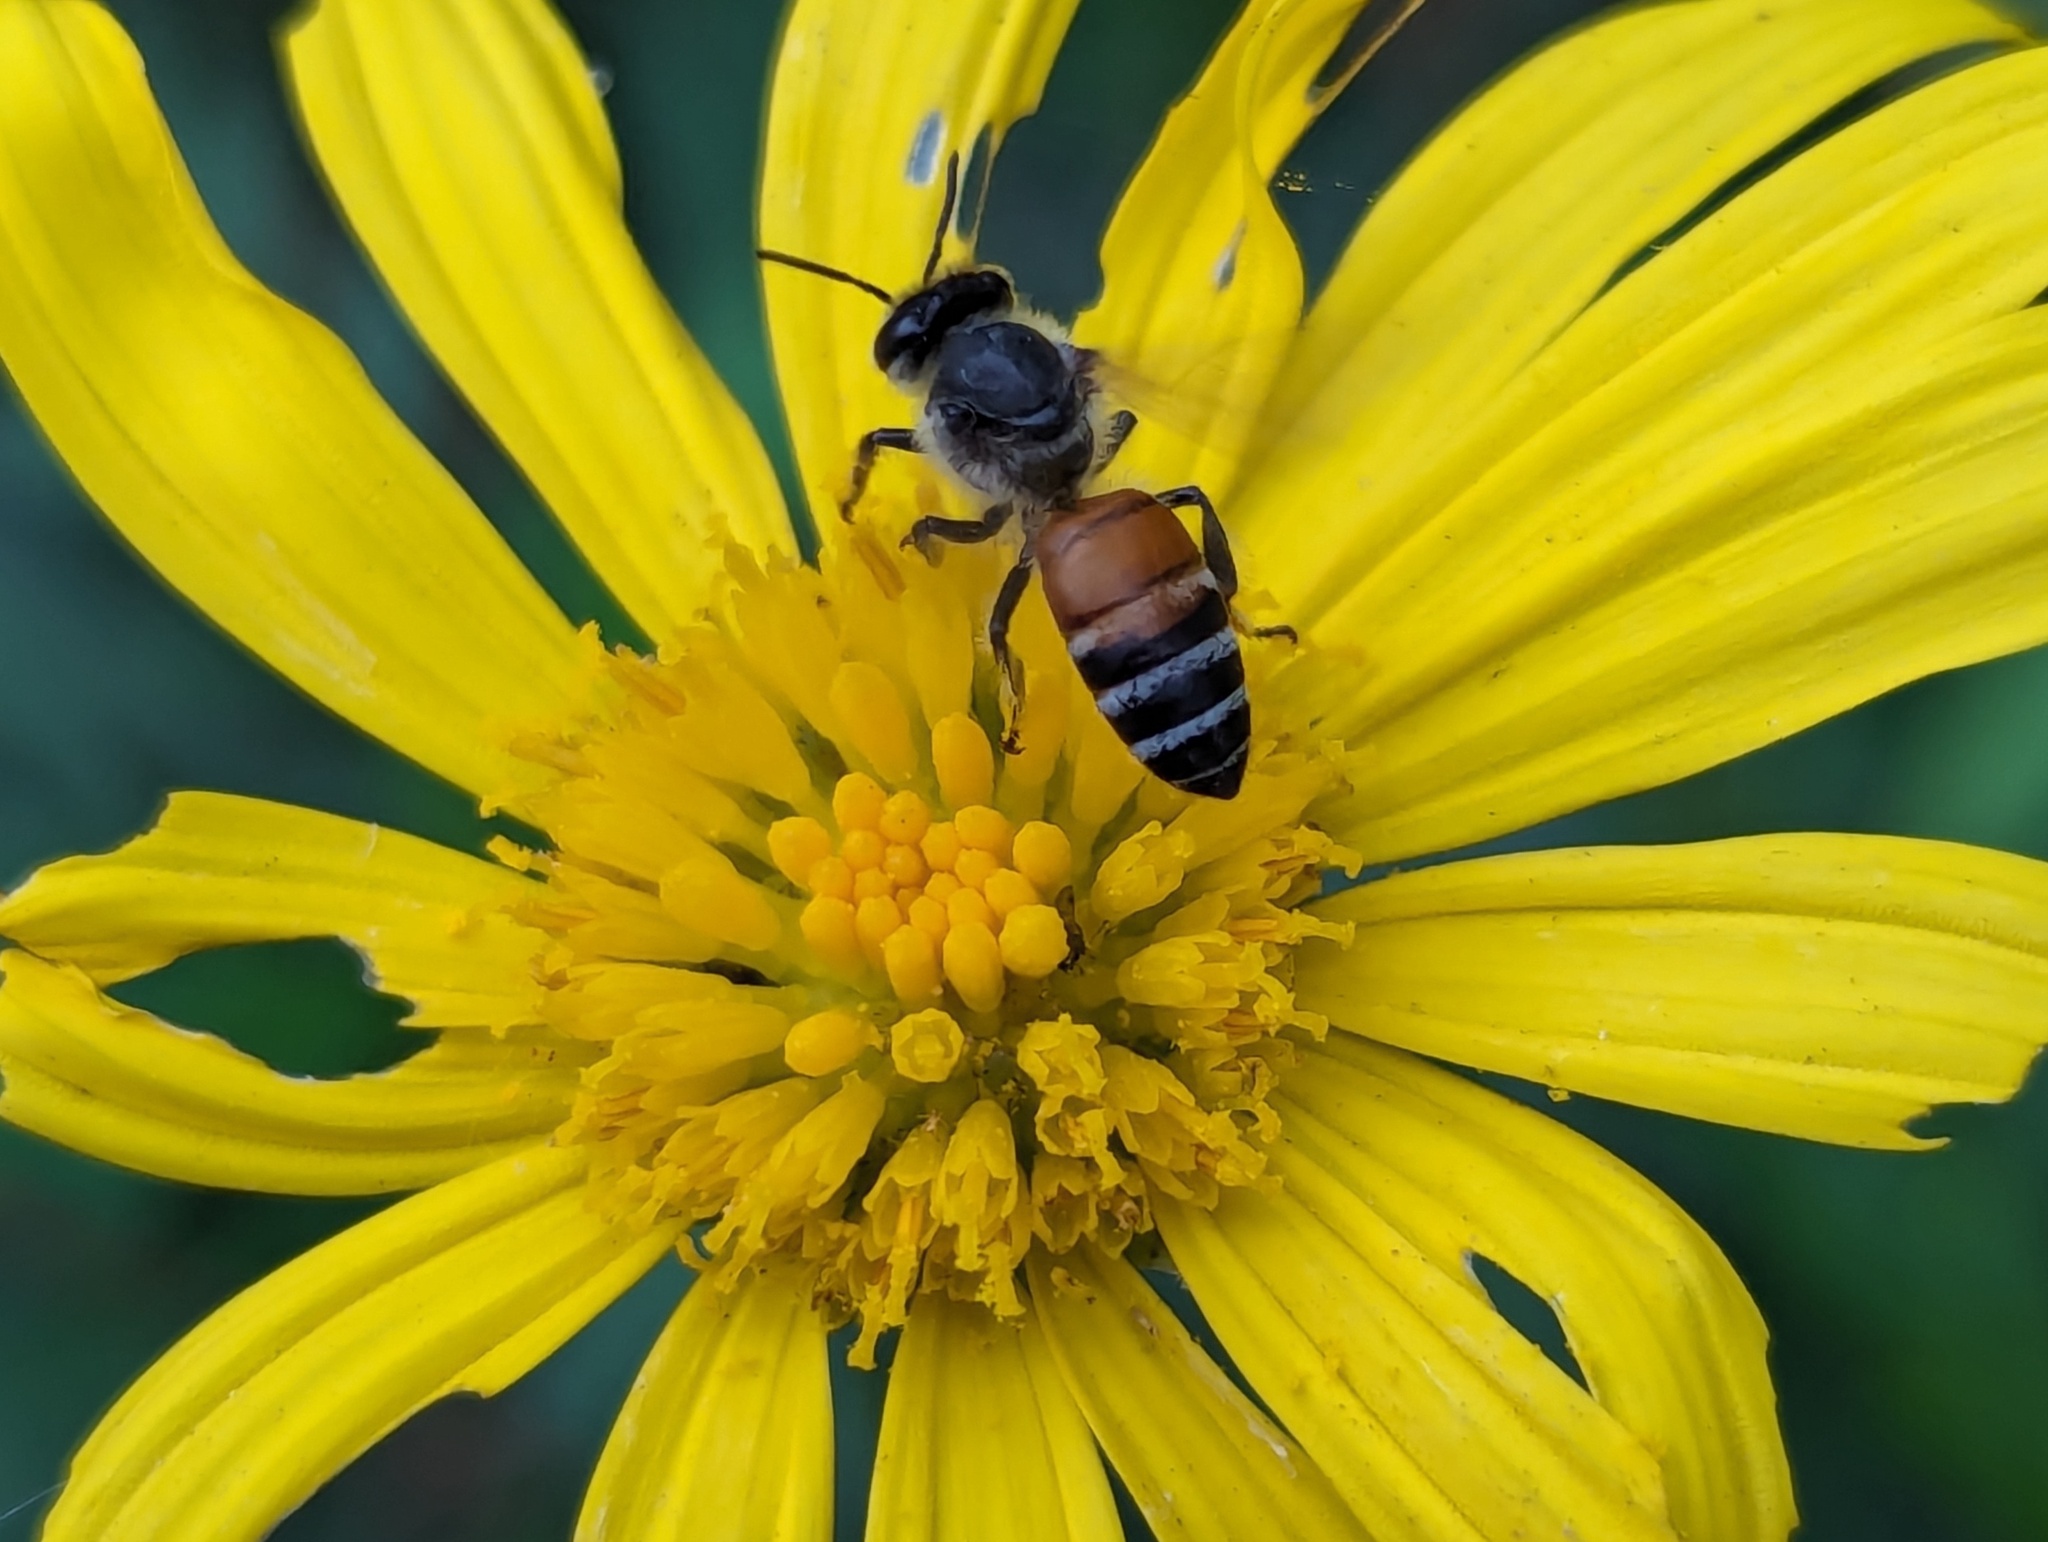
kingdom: Animalia
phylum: Arthropoda
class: Insecta
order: Hymenoptera
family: Apidae
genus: Apis
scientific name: Apis florea
